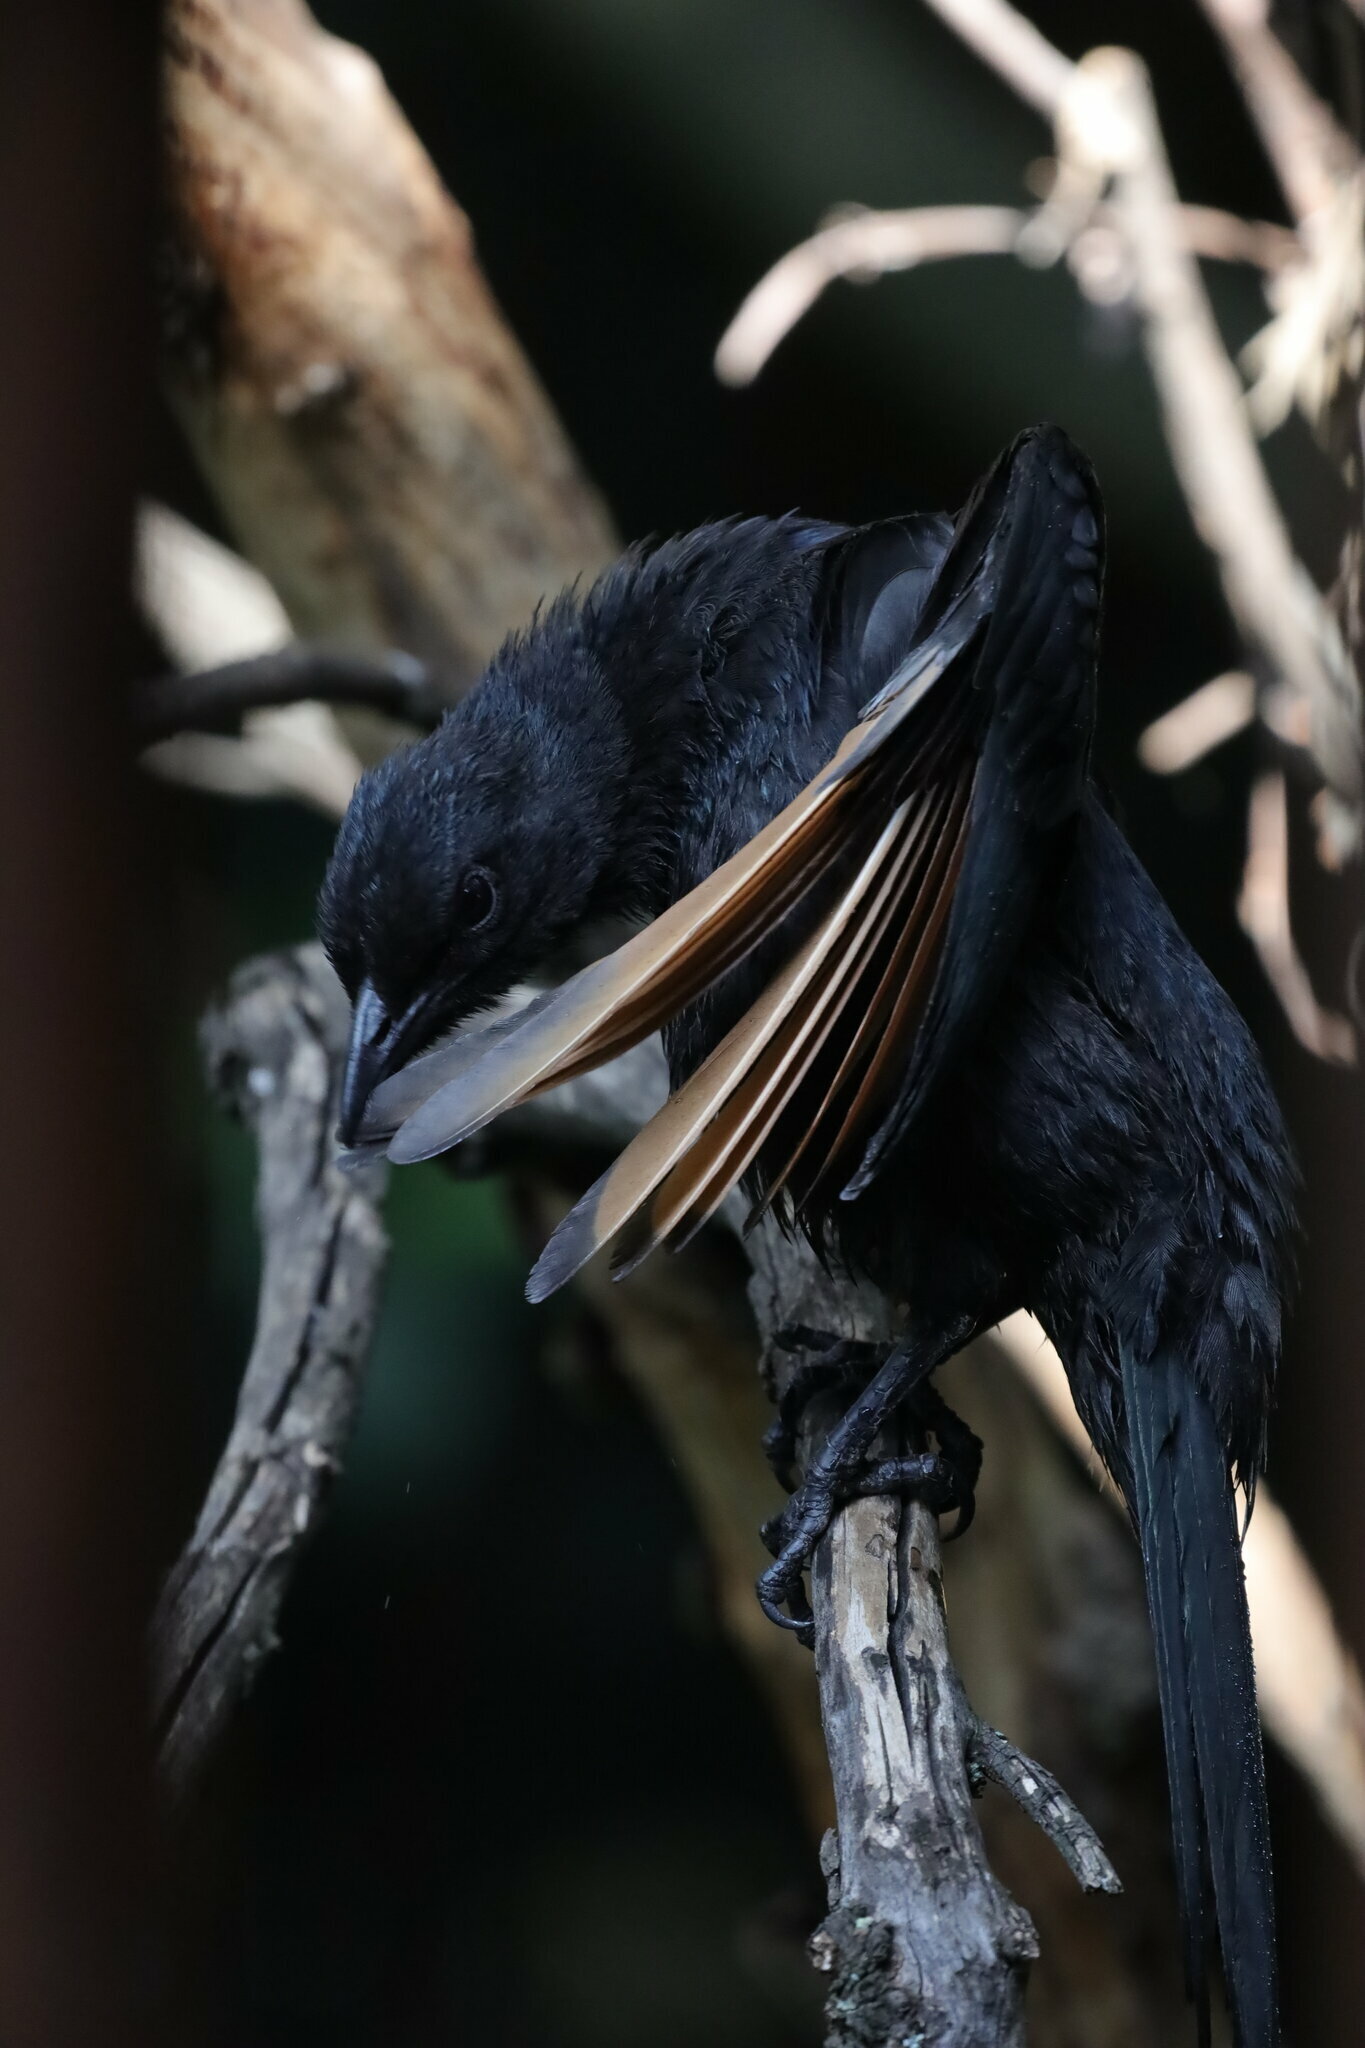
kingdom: Animalia
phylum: Chordata
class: Aves
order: Passeriformes
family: Sturnidae
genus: Onychognathus
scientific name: Onychognathus morio
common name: Red-winged starling
